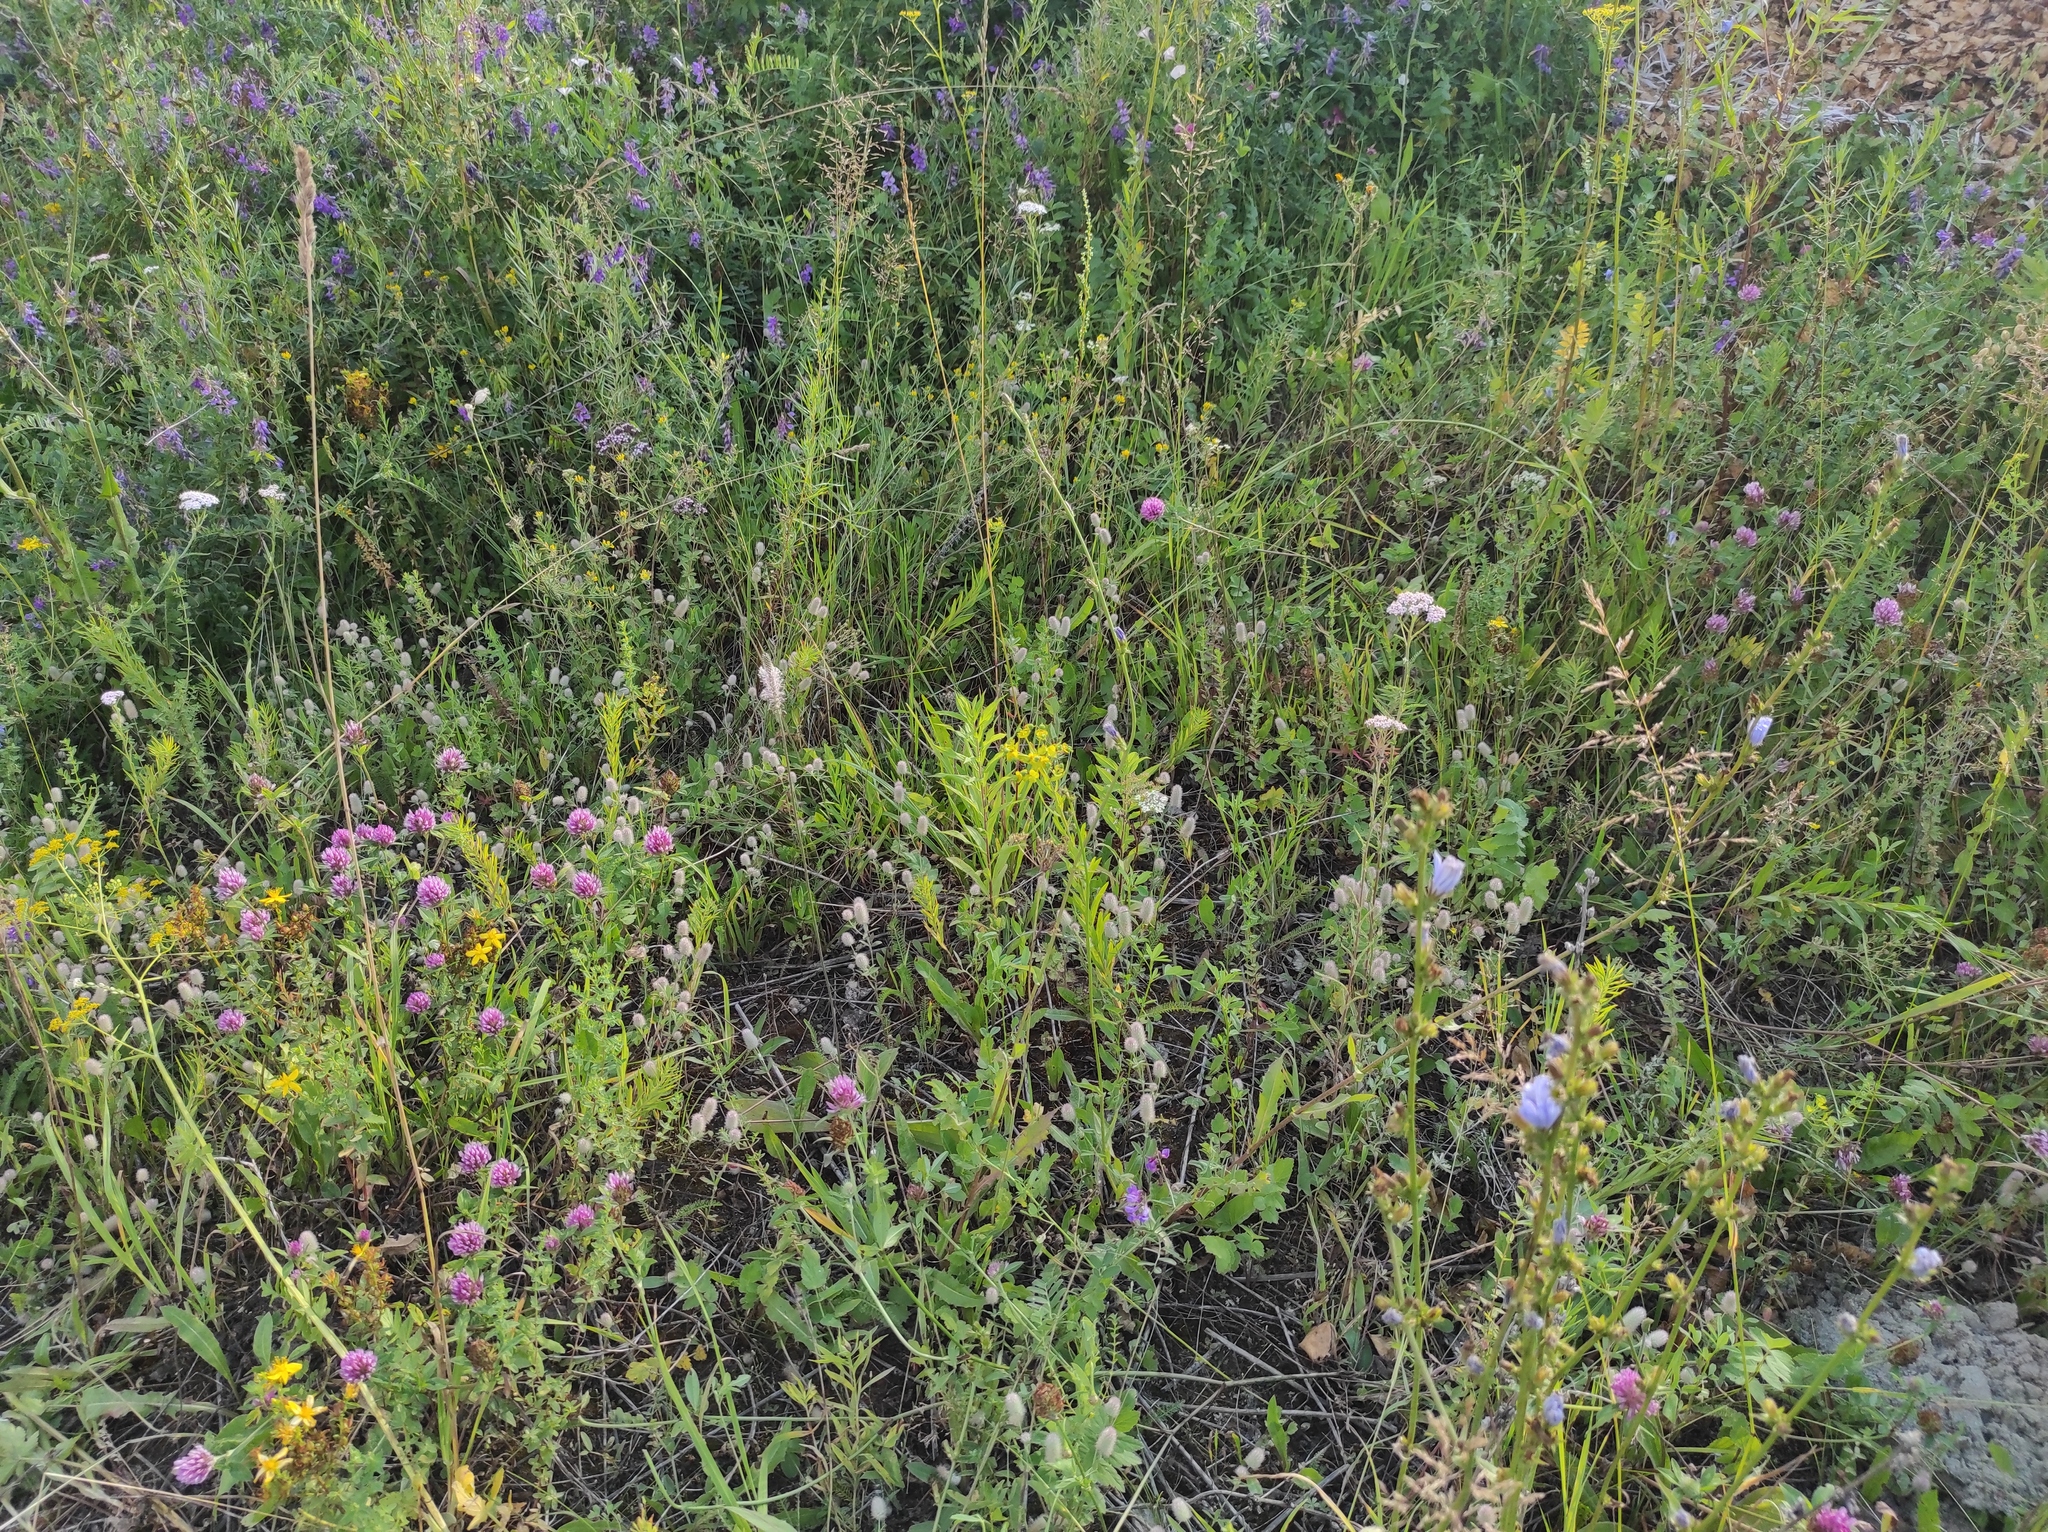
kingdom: Plantae
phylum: Tracheophyta
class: Magnoliopsida
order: Fabales
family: Fabaceae
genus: Trifolium
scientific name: Trifolium pratense
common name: Red clover
